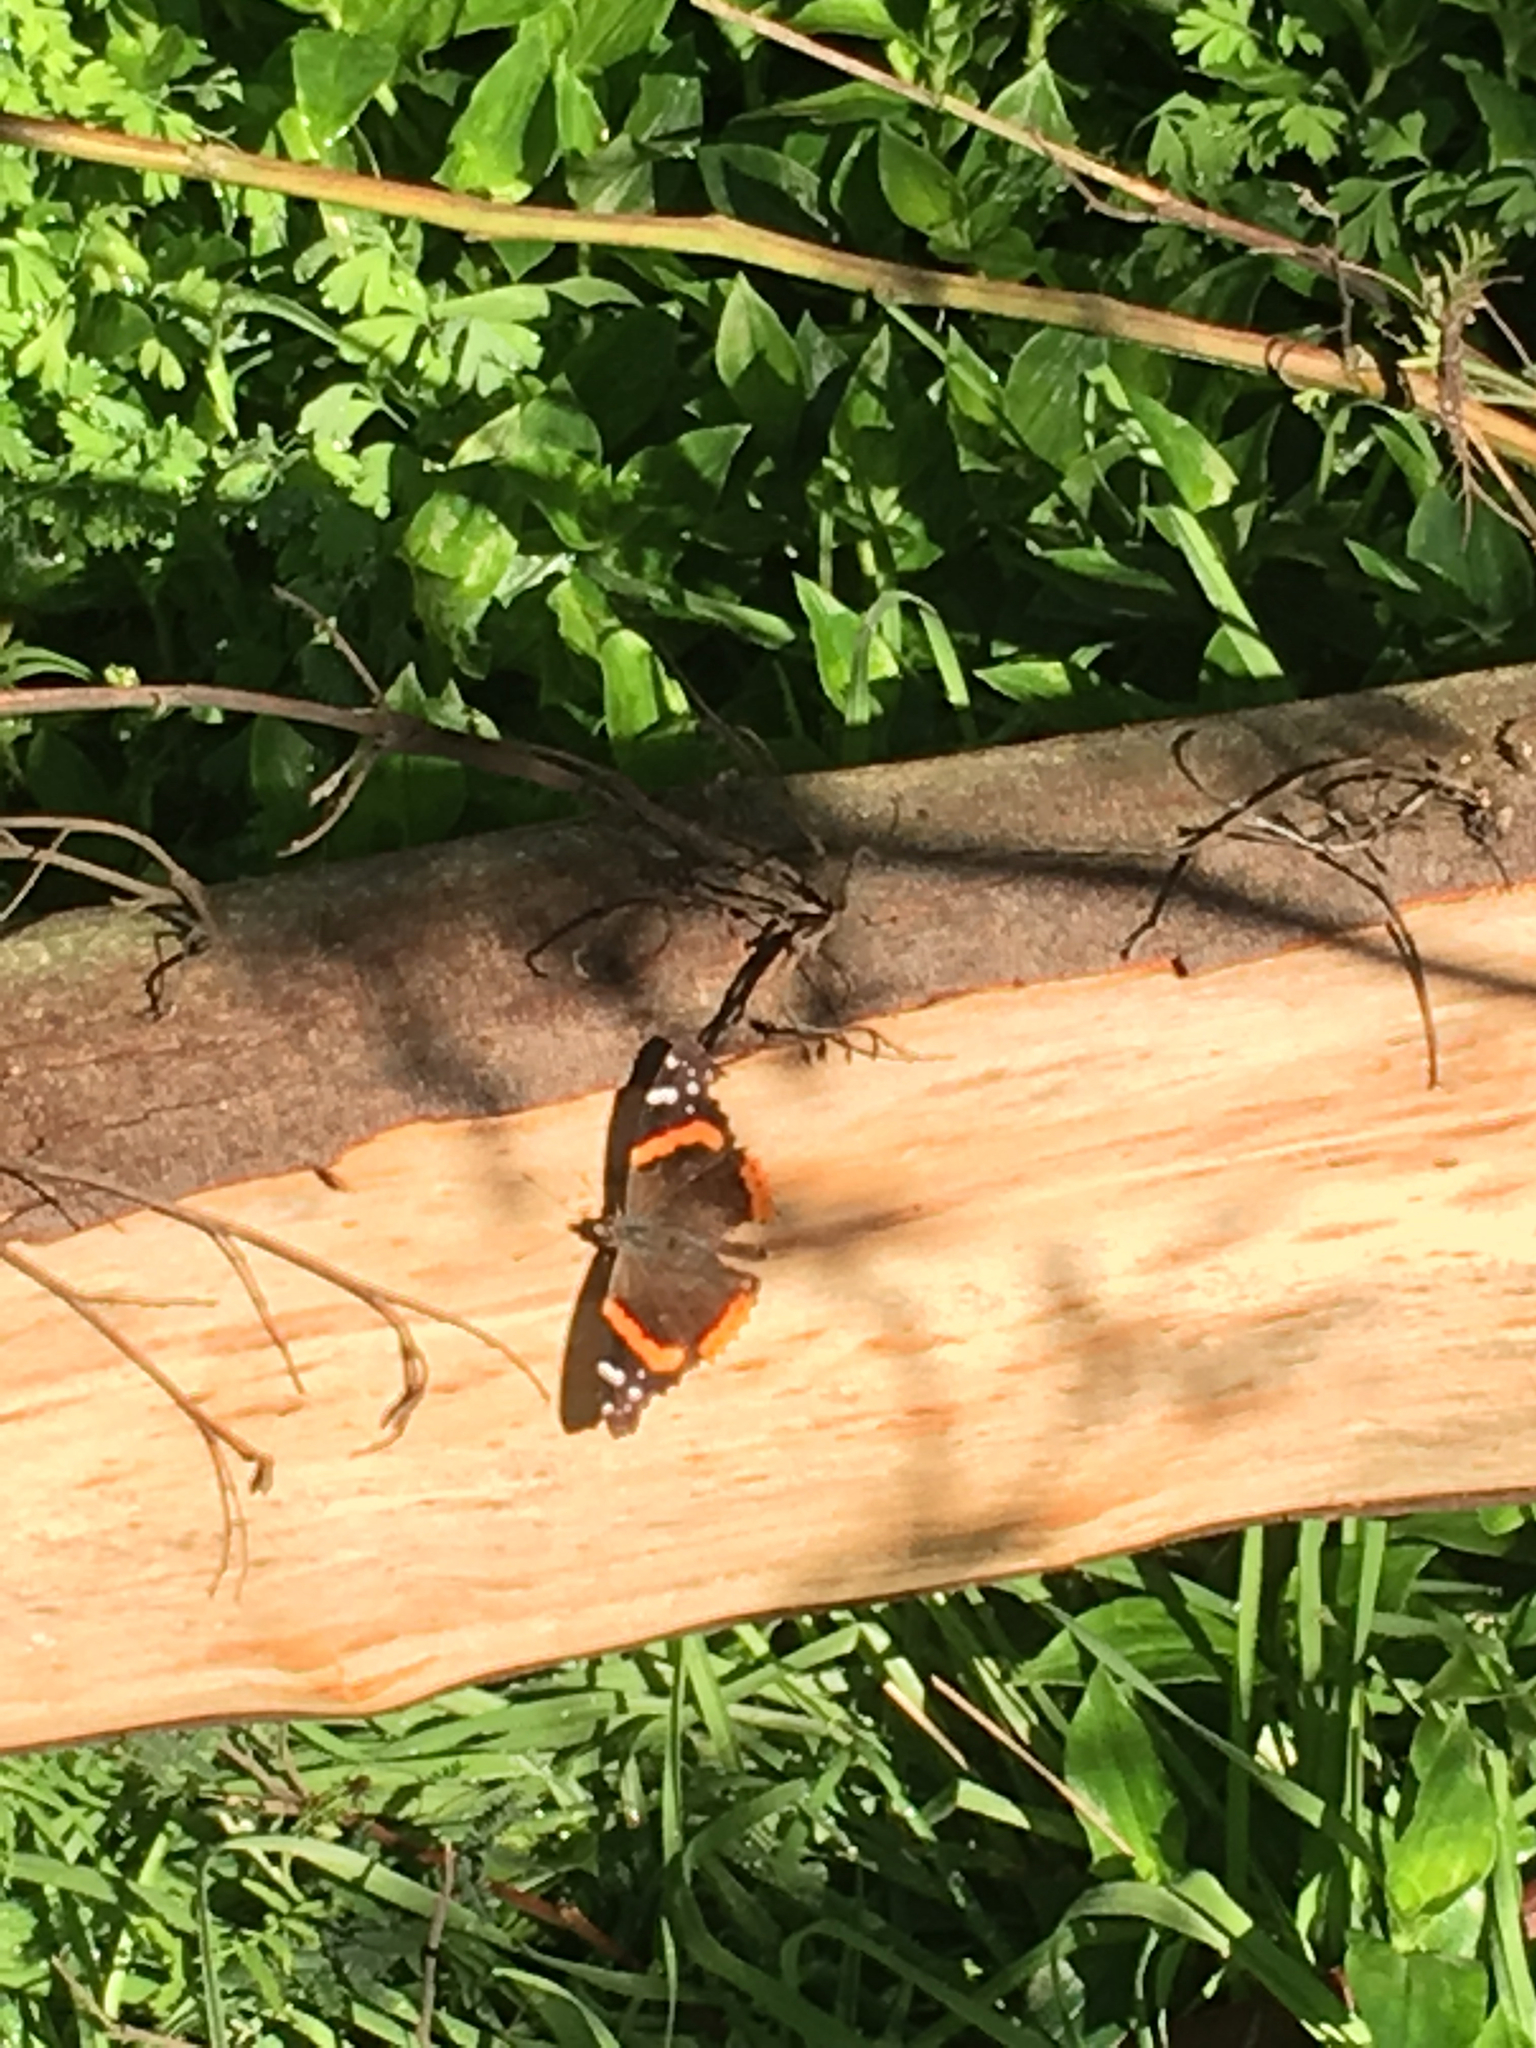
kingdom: Animalia
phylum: Arthropoda
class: Insecta
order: Lepidoptera
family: Nymphalidae
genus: Vanessa
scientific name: Vanessa atalanta
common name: Red admiral
